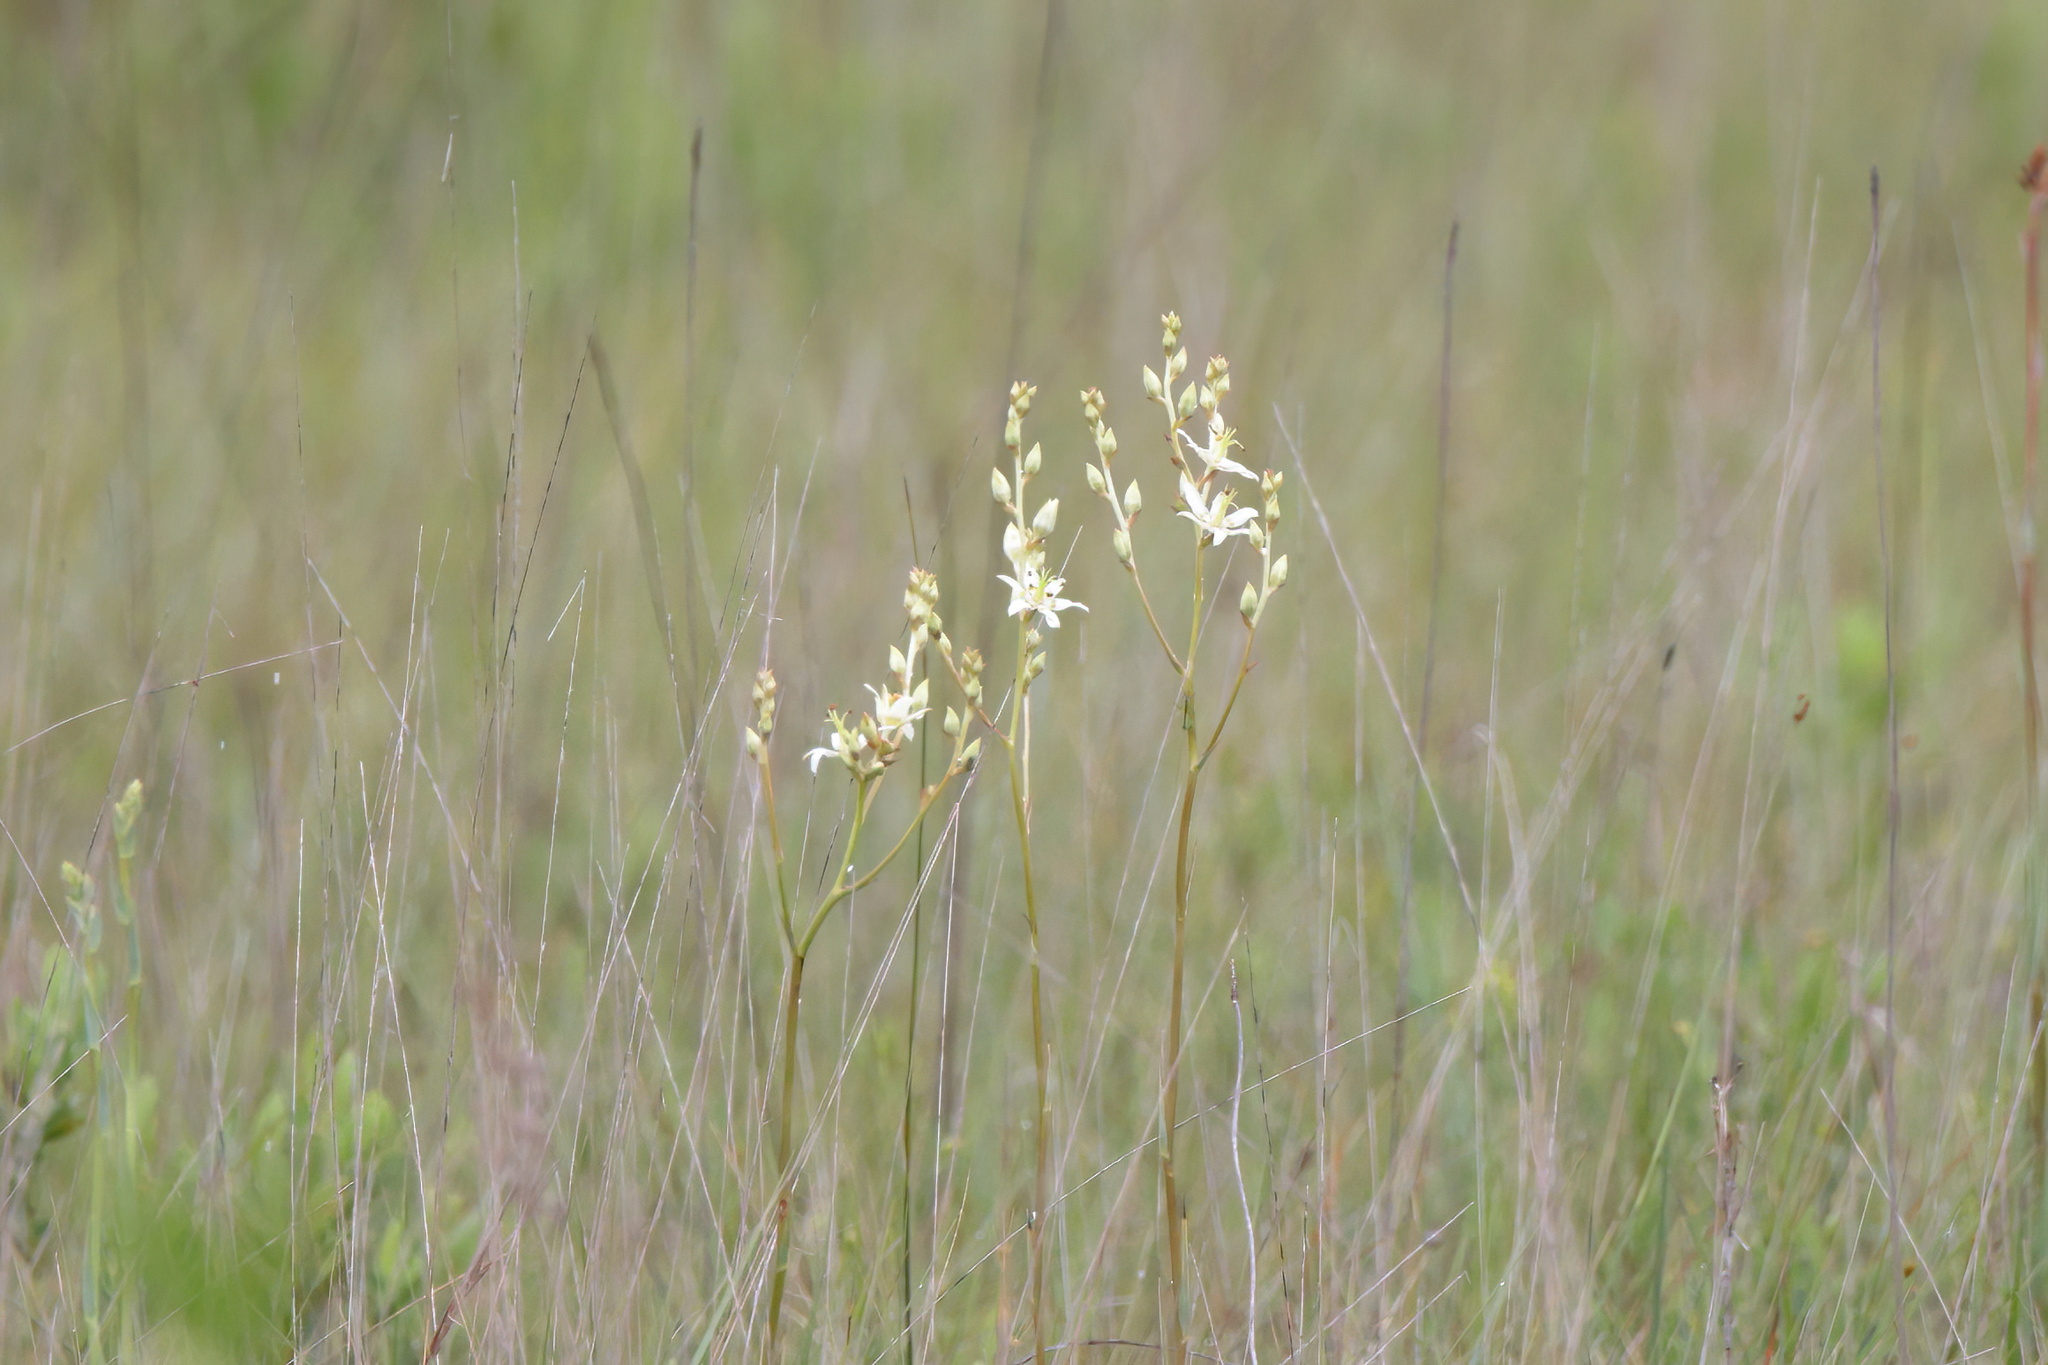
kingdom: Plantae
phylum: Tracheophyta
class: Liliopsida
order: Liliales
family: Melanthiaceae
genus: Zigadenus
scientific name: Zigadenus glaberrimus
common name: Sandbog death camas
